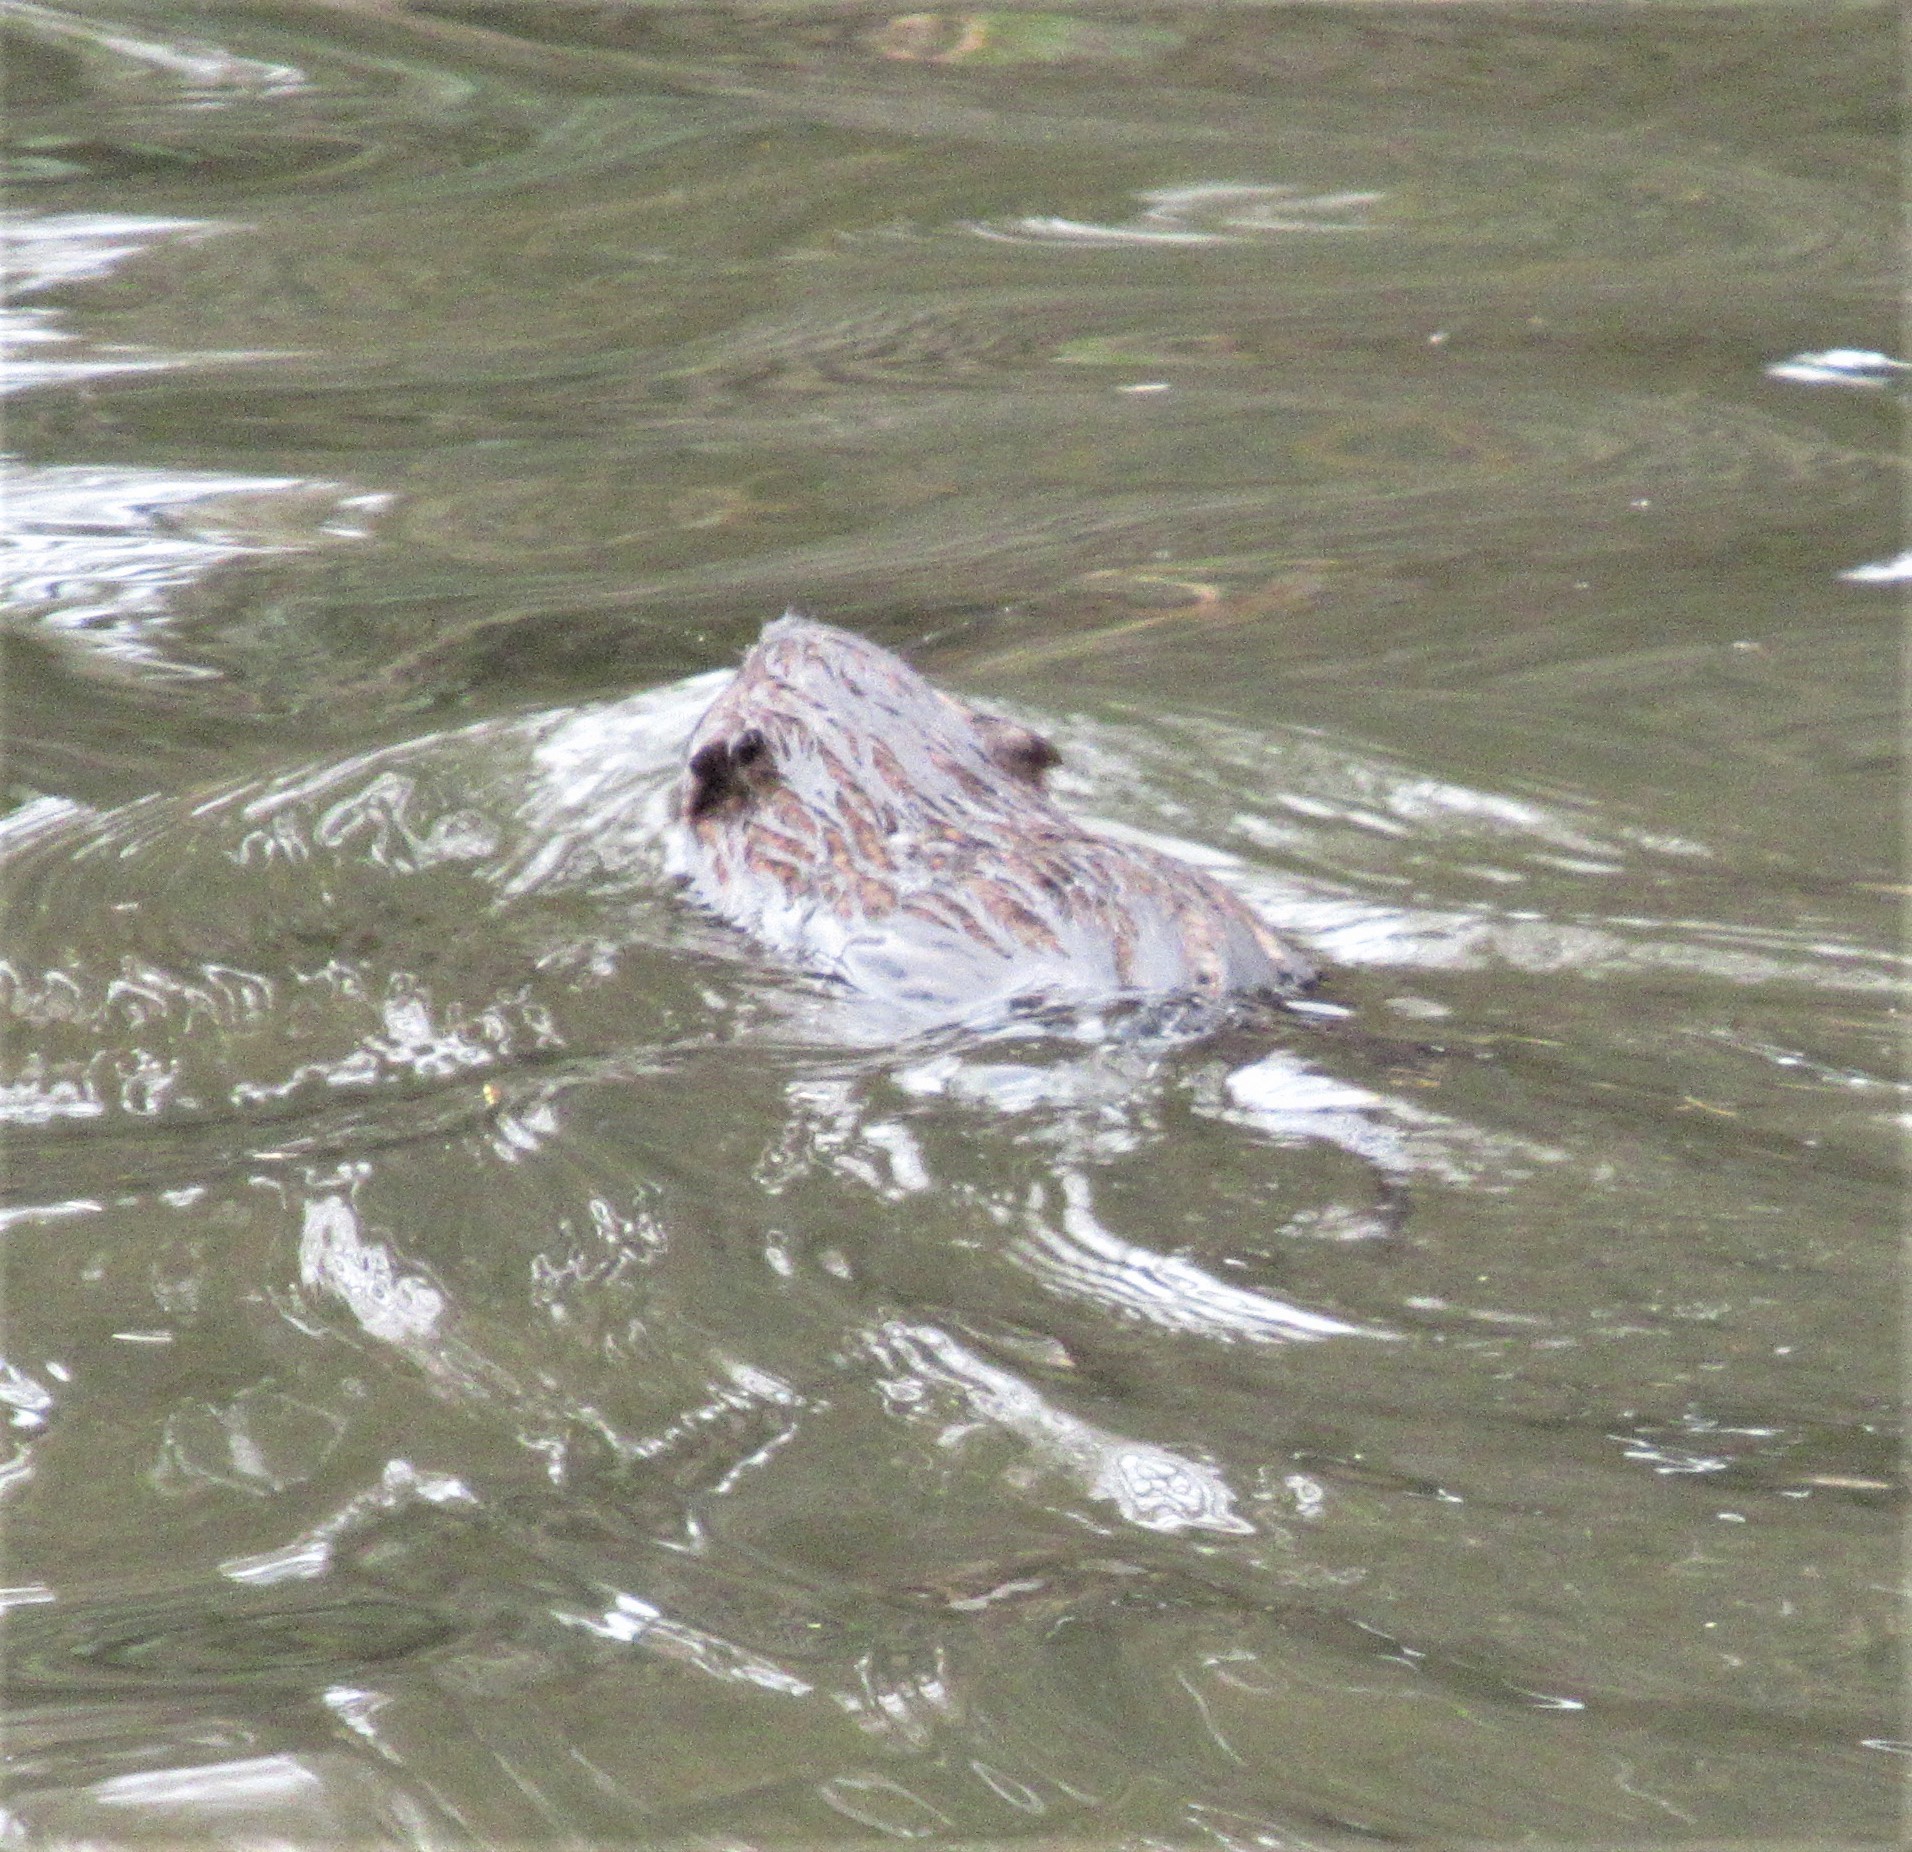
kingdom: Animalia
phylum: Chordata
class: Mammalia
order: Rodentia
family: Castoridae
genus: Castor
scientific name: Castor canadensis
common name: American beaver
